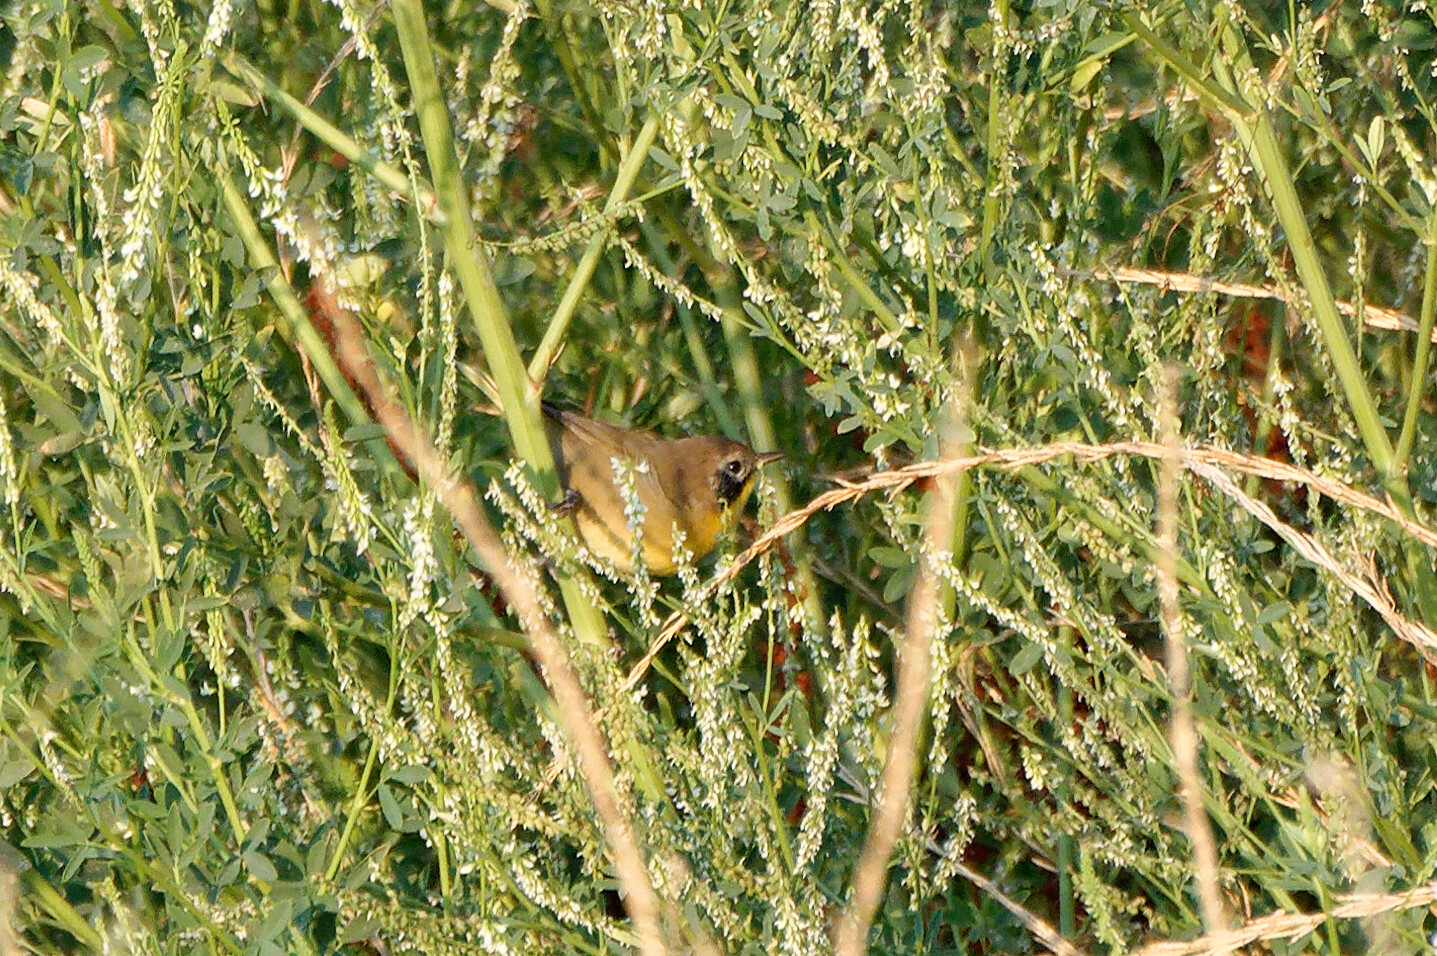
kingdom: Animalia
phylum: Chordata
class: Aves
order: Passeriformes
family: Parulidae
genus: Geothlypis
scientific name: Geothlypis trichas
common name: Common yellowthroat
